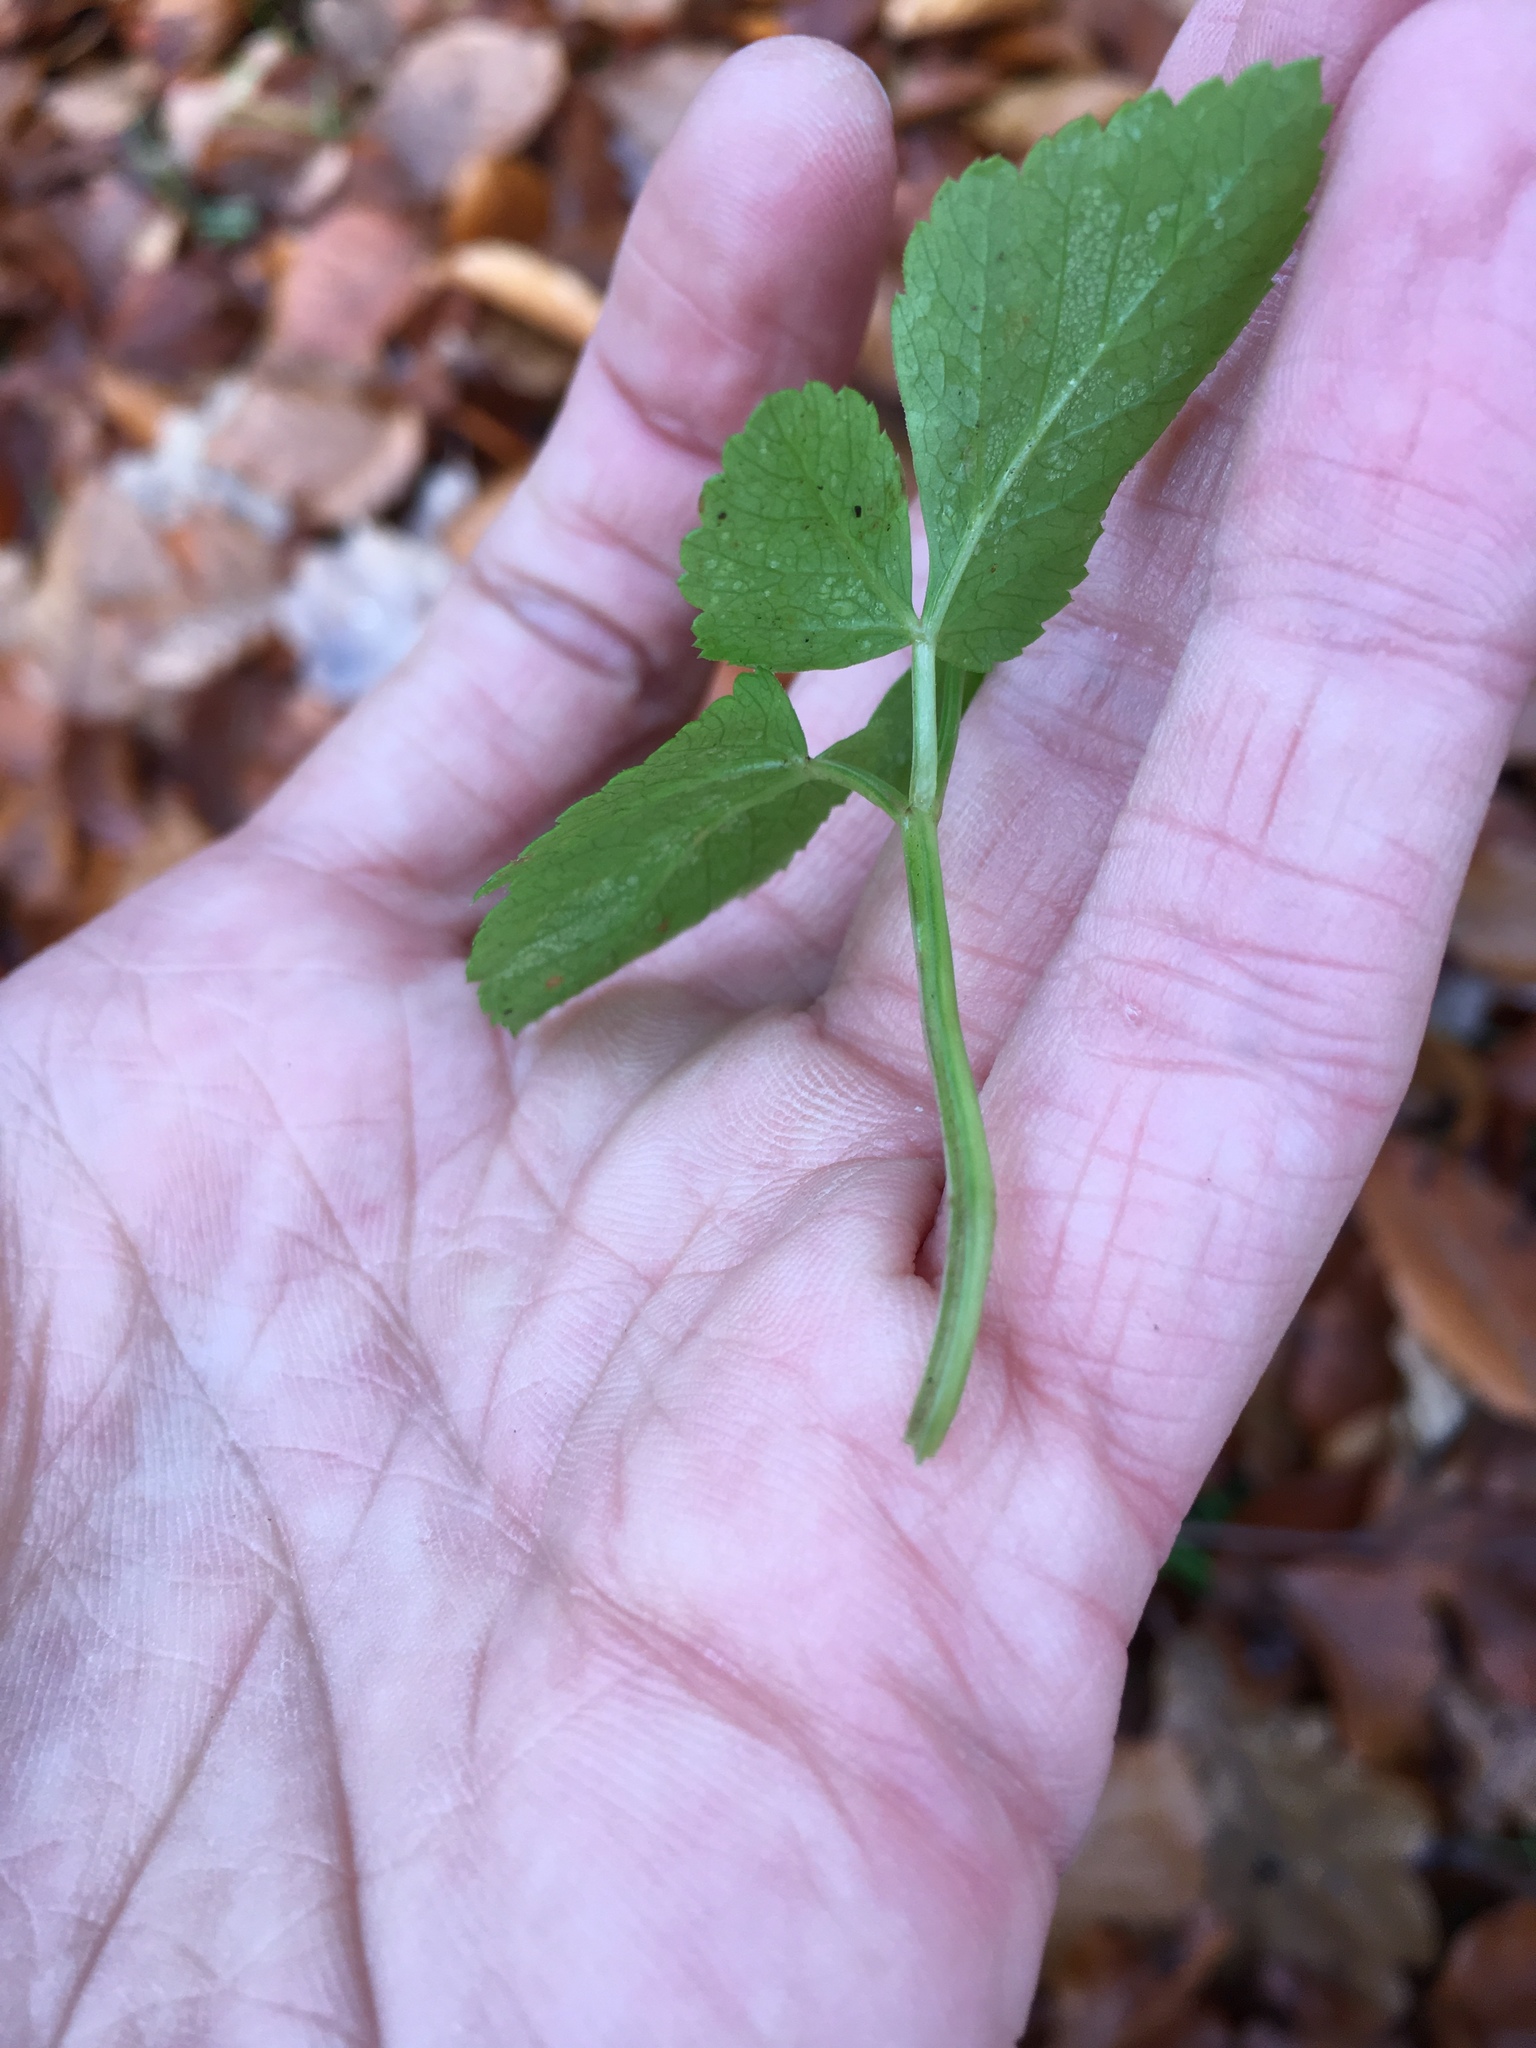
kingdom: Plantae
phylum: Tracheophyta
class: Magnoliopsida
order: Apiales
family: Apiaceae
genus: Aegopodium
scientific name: Aegopodium podagraria
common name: Ground-elder
